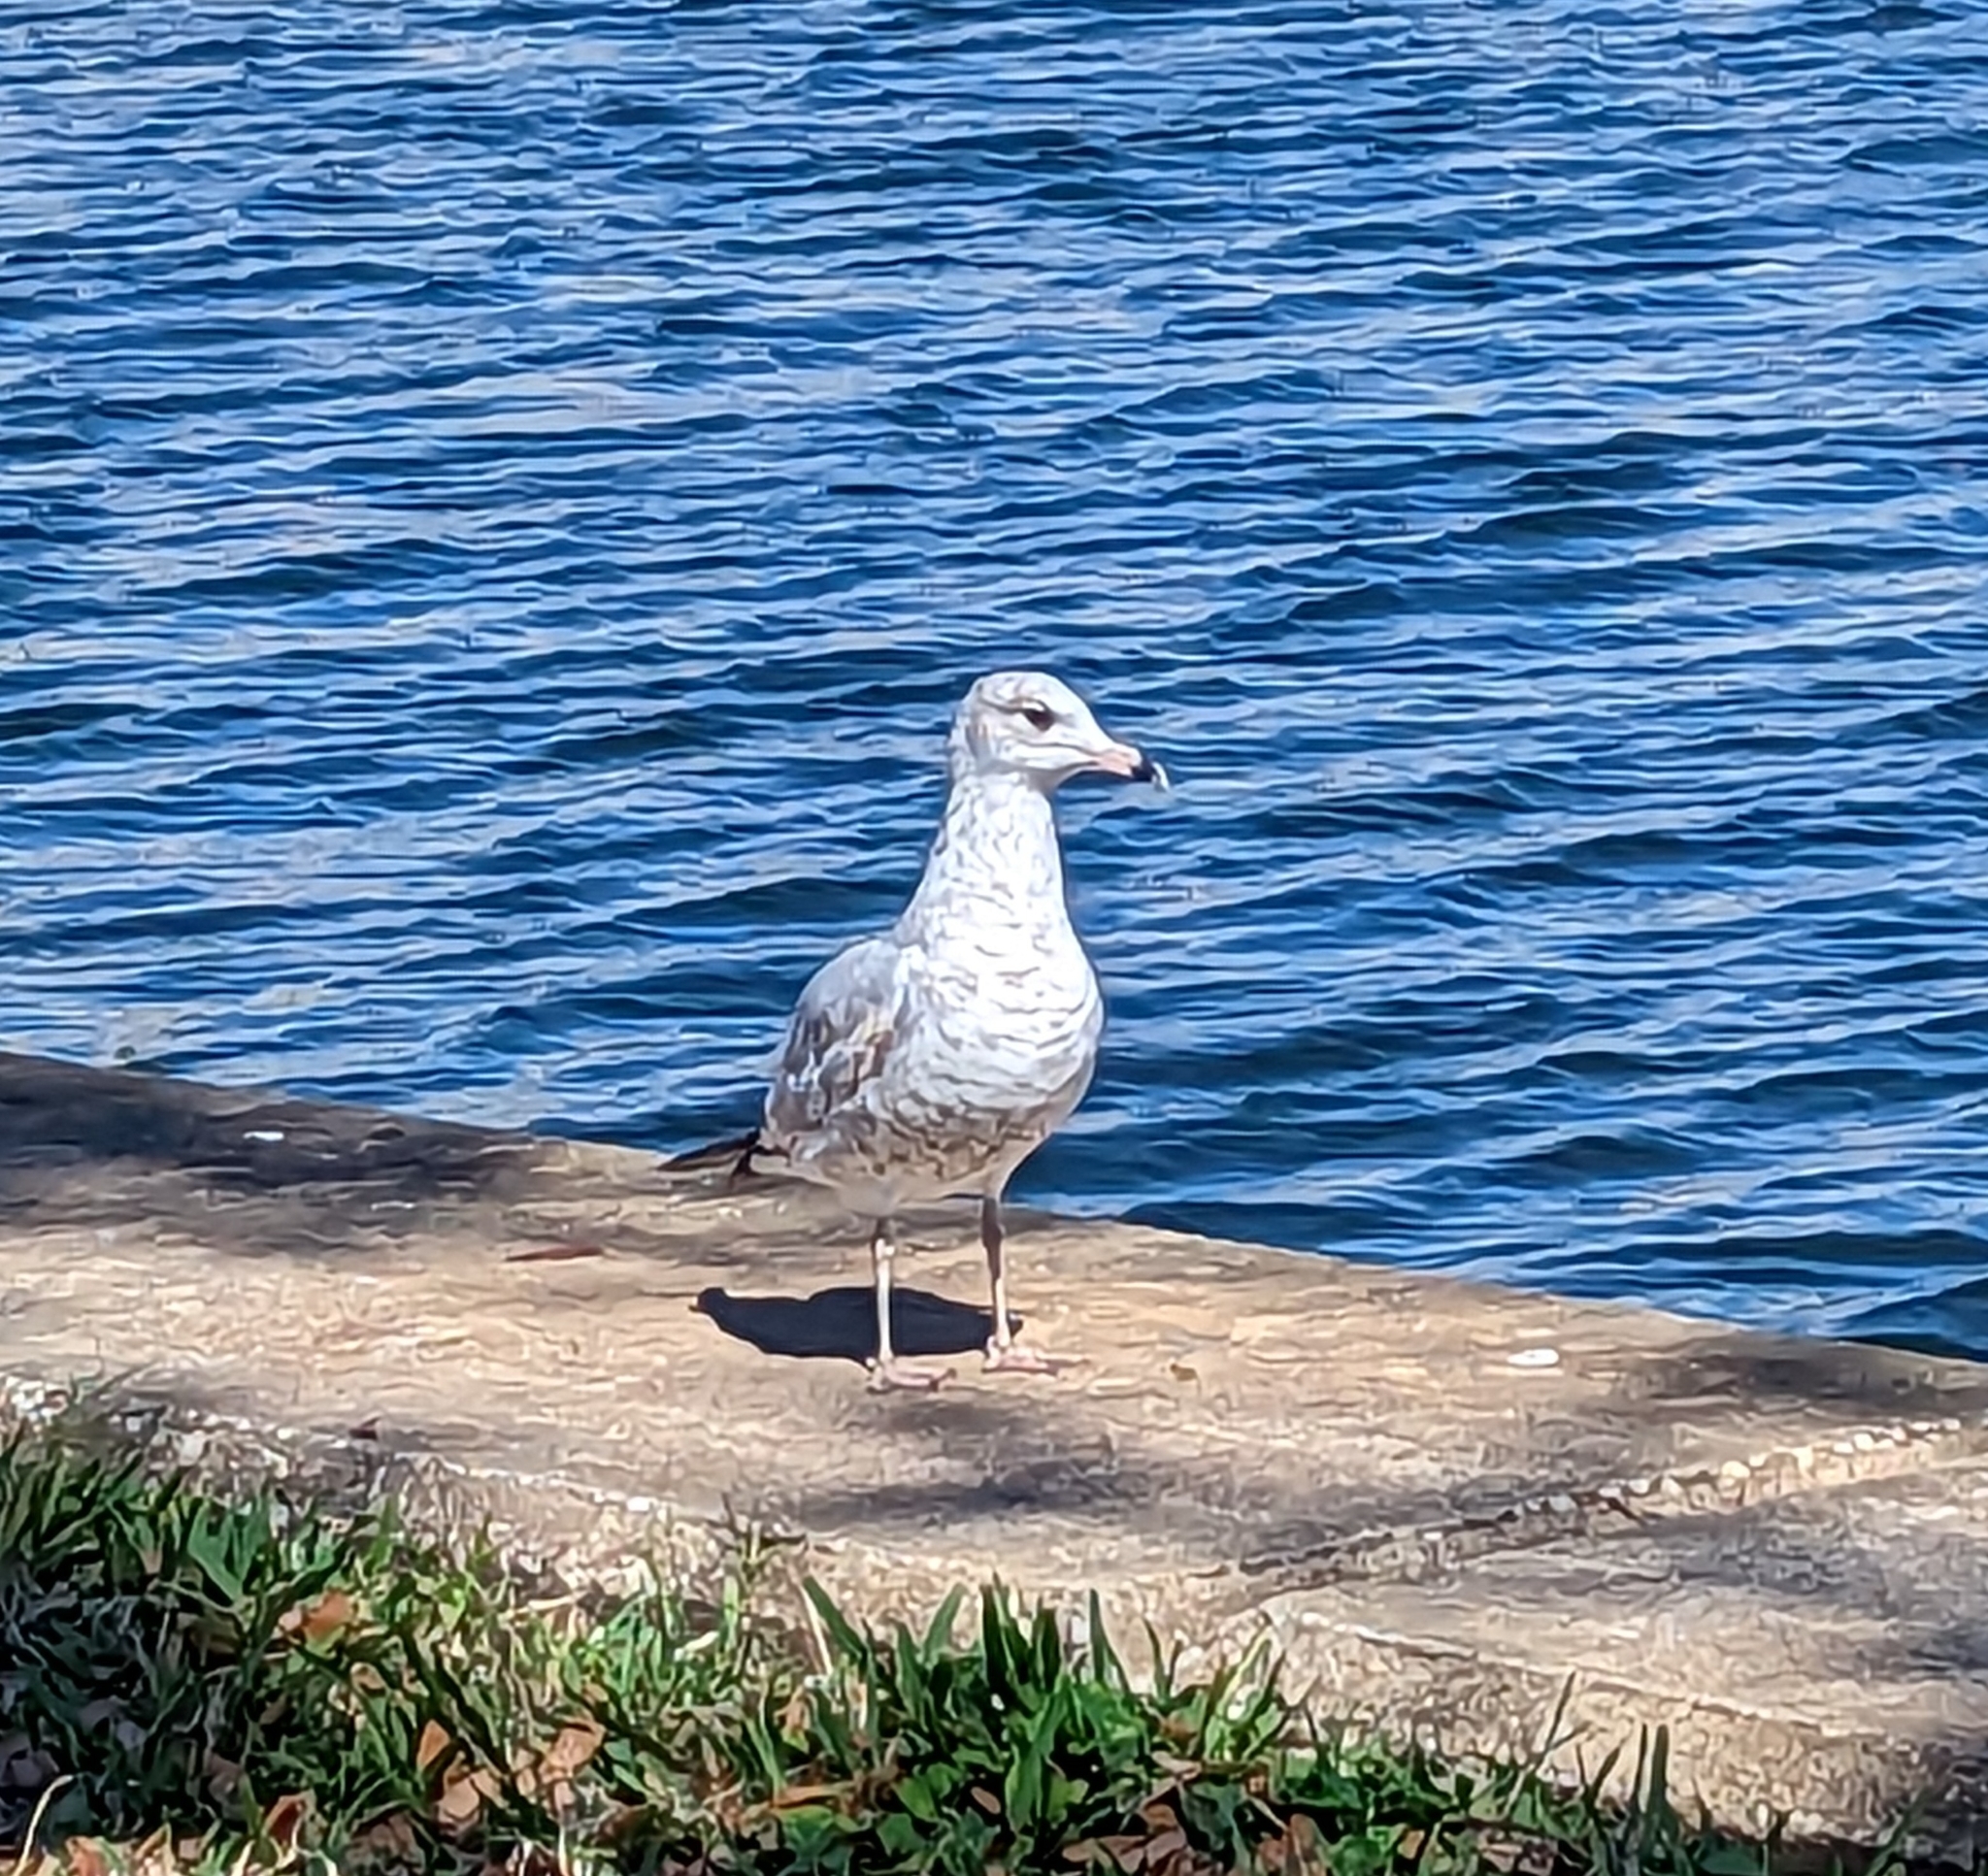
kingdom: Animalia
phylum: Chordata
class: Aves
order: Charadriiformes
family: Laridae
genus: Larus
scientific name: Larus delawarensis
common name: Ring-billed gull
